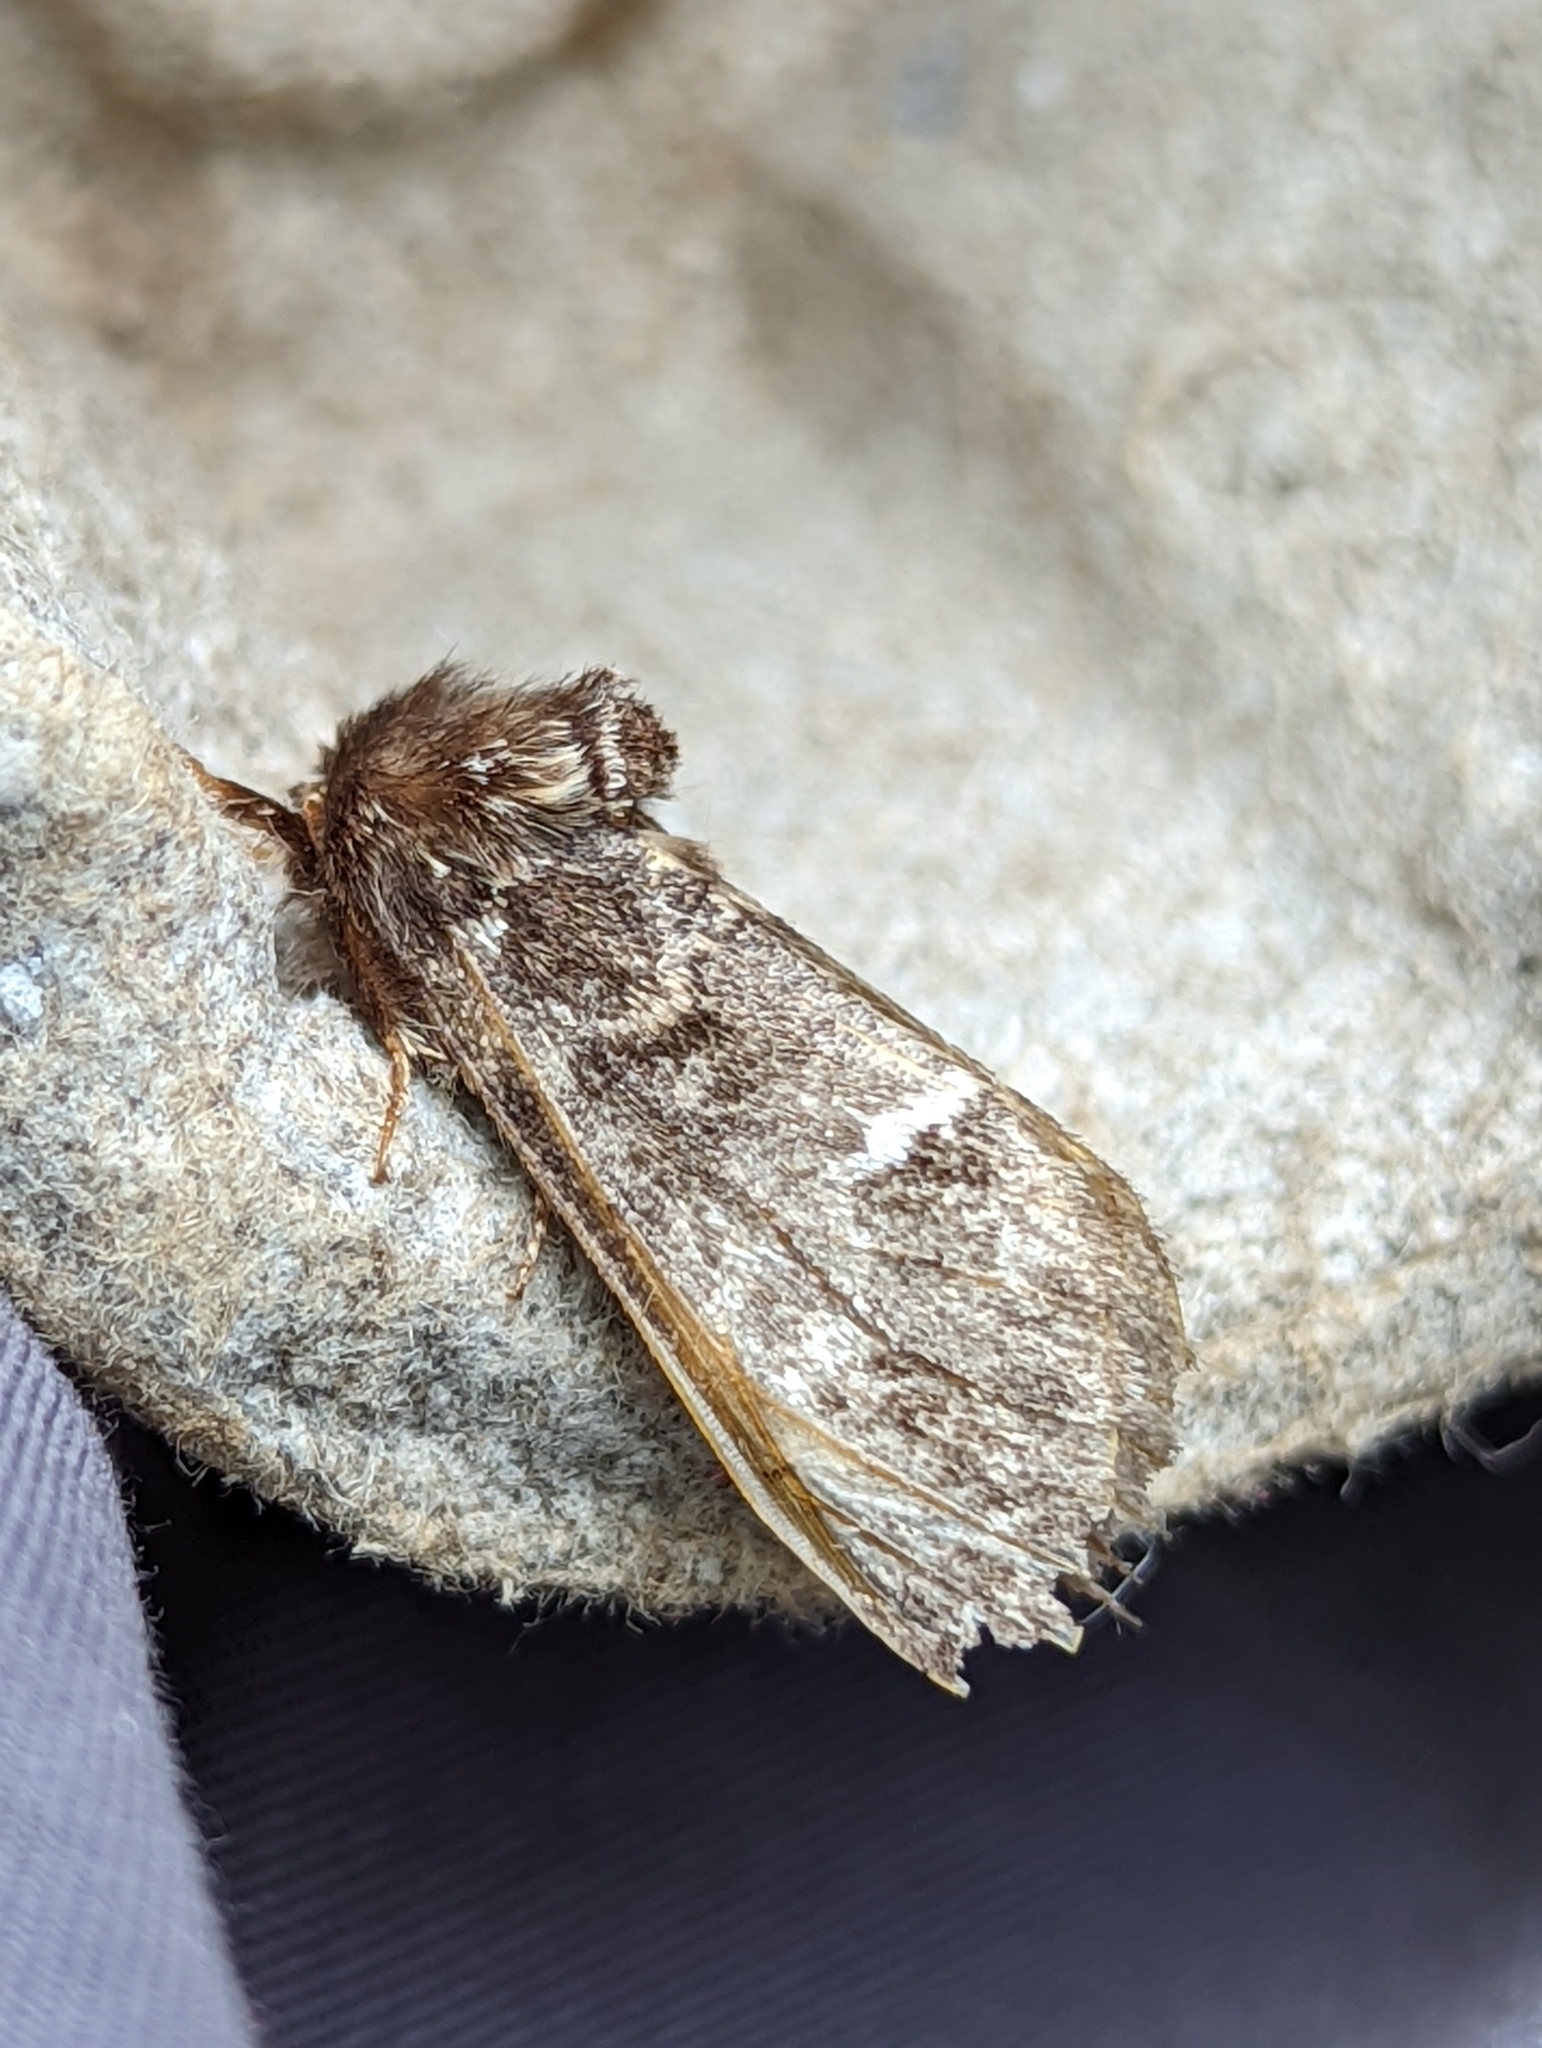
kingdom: Animalia
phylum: Arthropoda
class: Insecta
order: Lepidoptera
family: Notodontidae
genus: Drymonia
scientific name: Drymonia dodonaea
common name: Marbled brown
